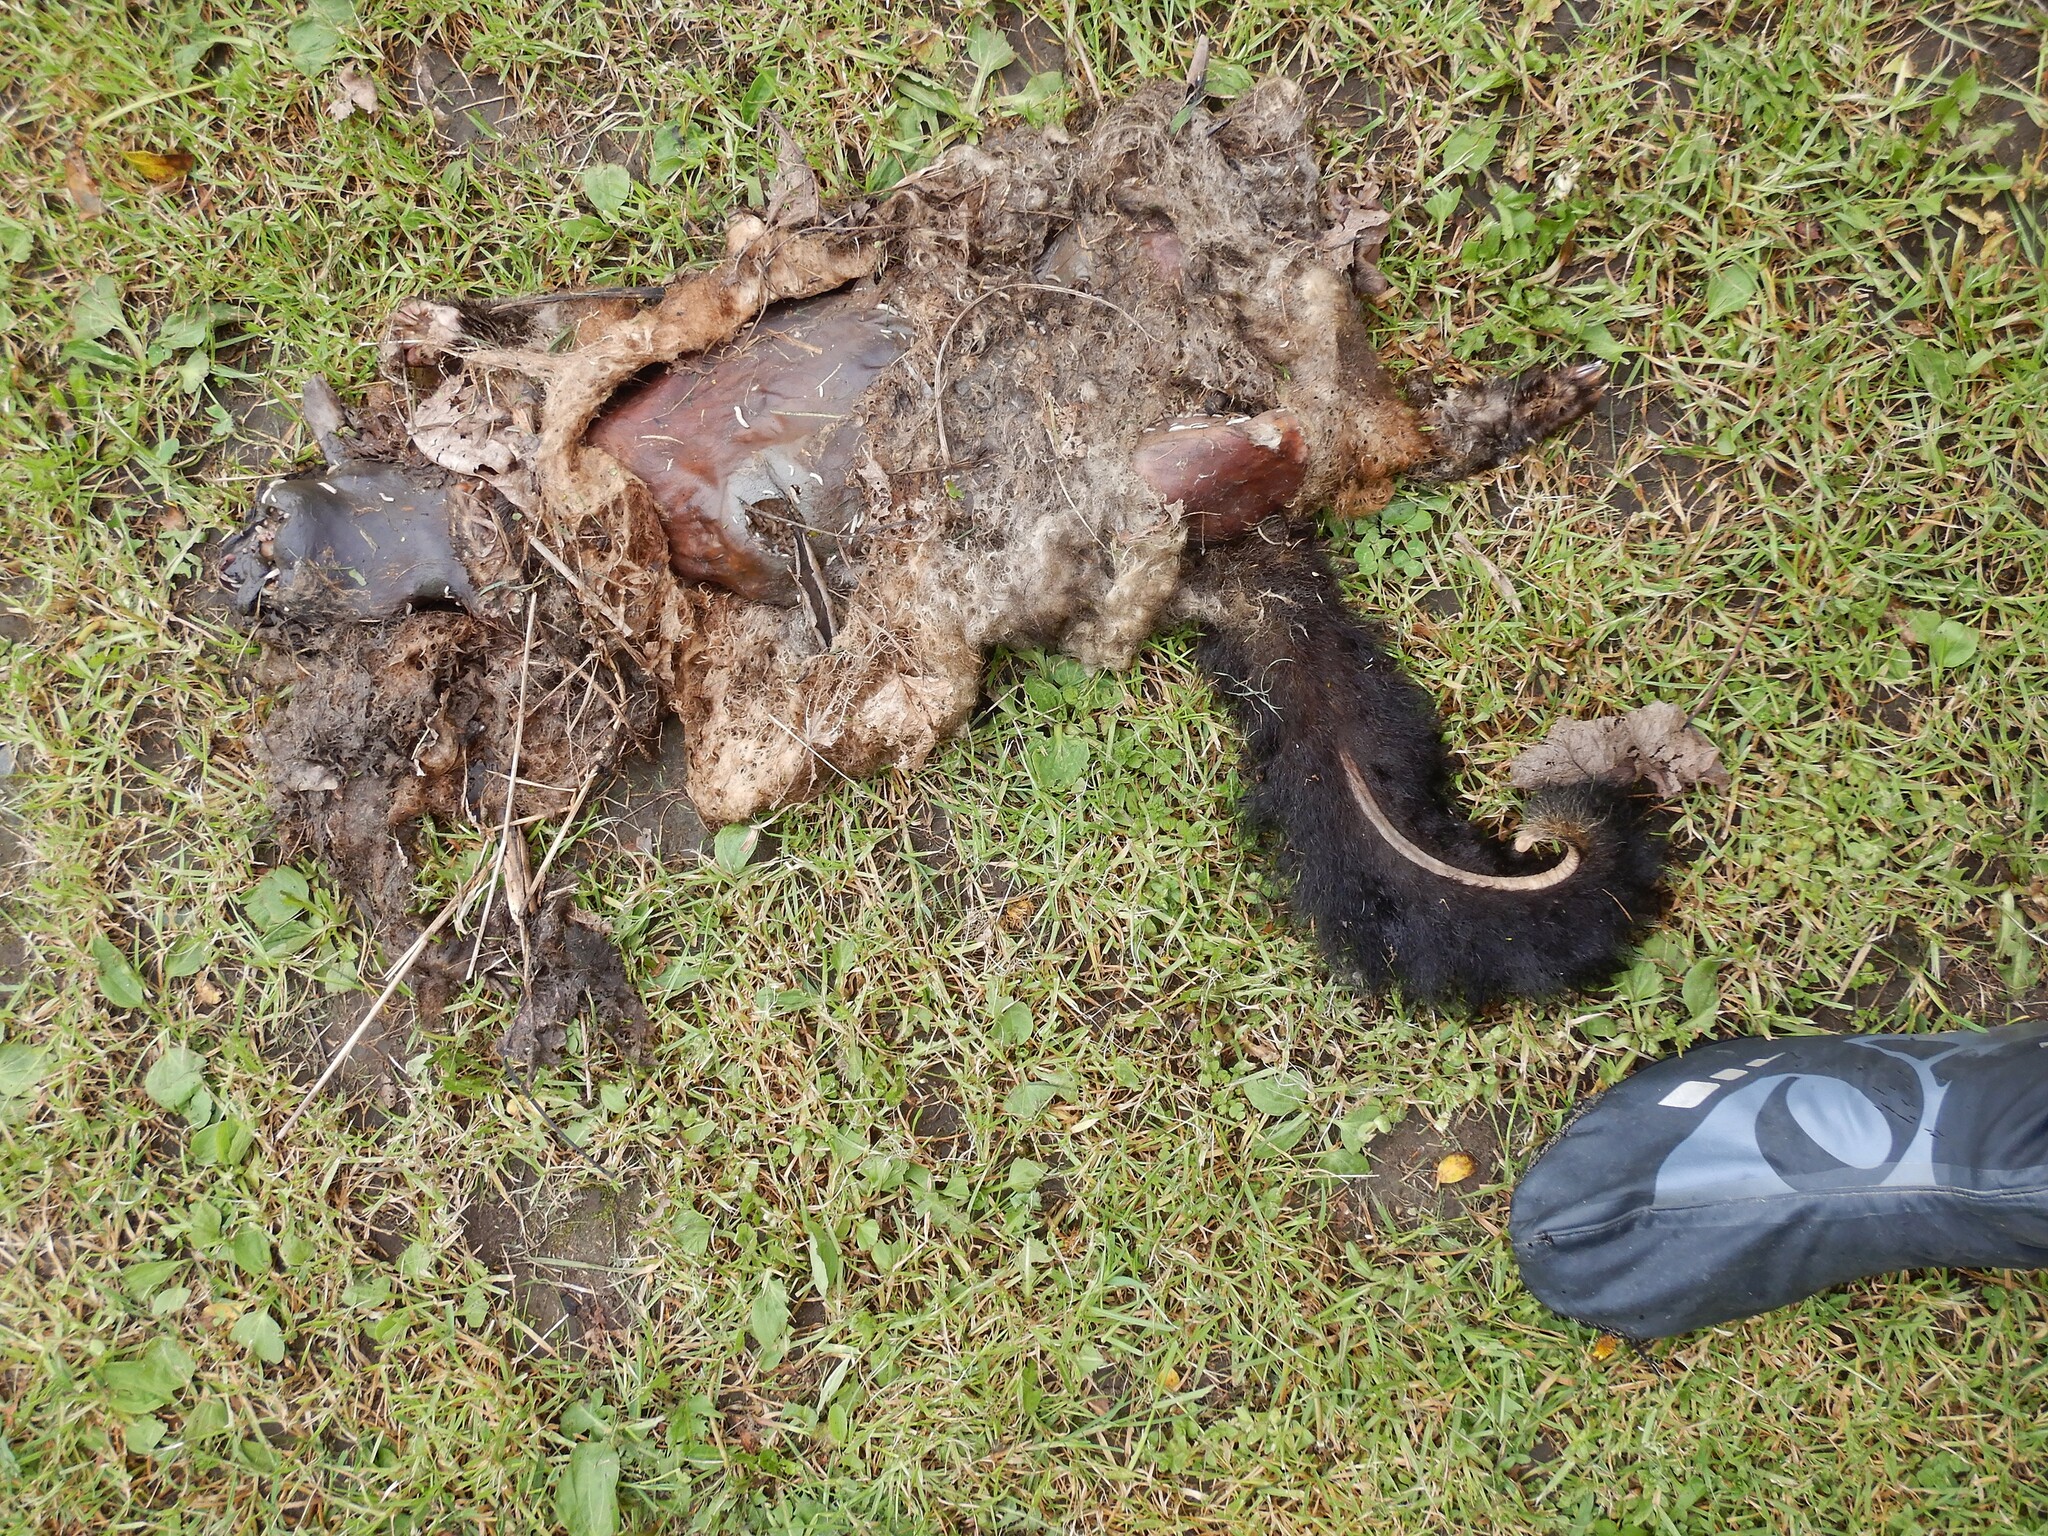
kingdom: Animalia
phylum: Chordata
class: Mammalia
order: Diprotodontia
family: Phalangeridae
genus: Trichosurus
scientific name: Trichosurus vulpecula
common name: Common brushtail
